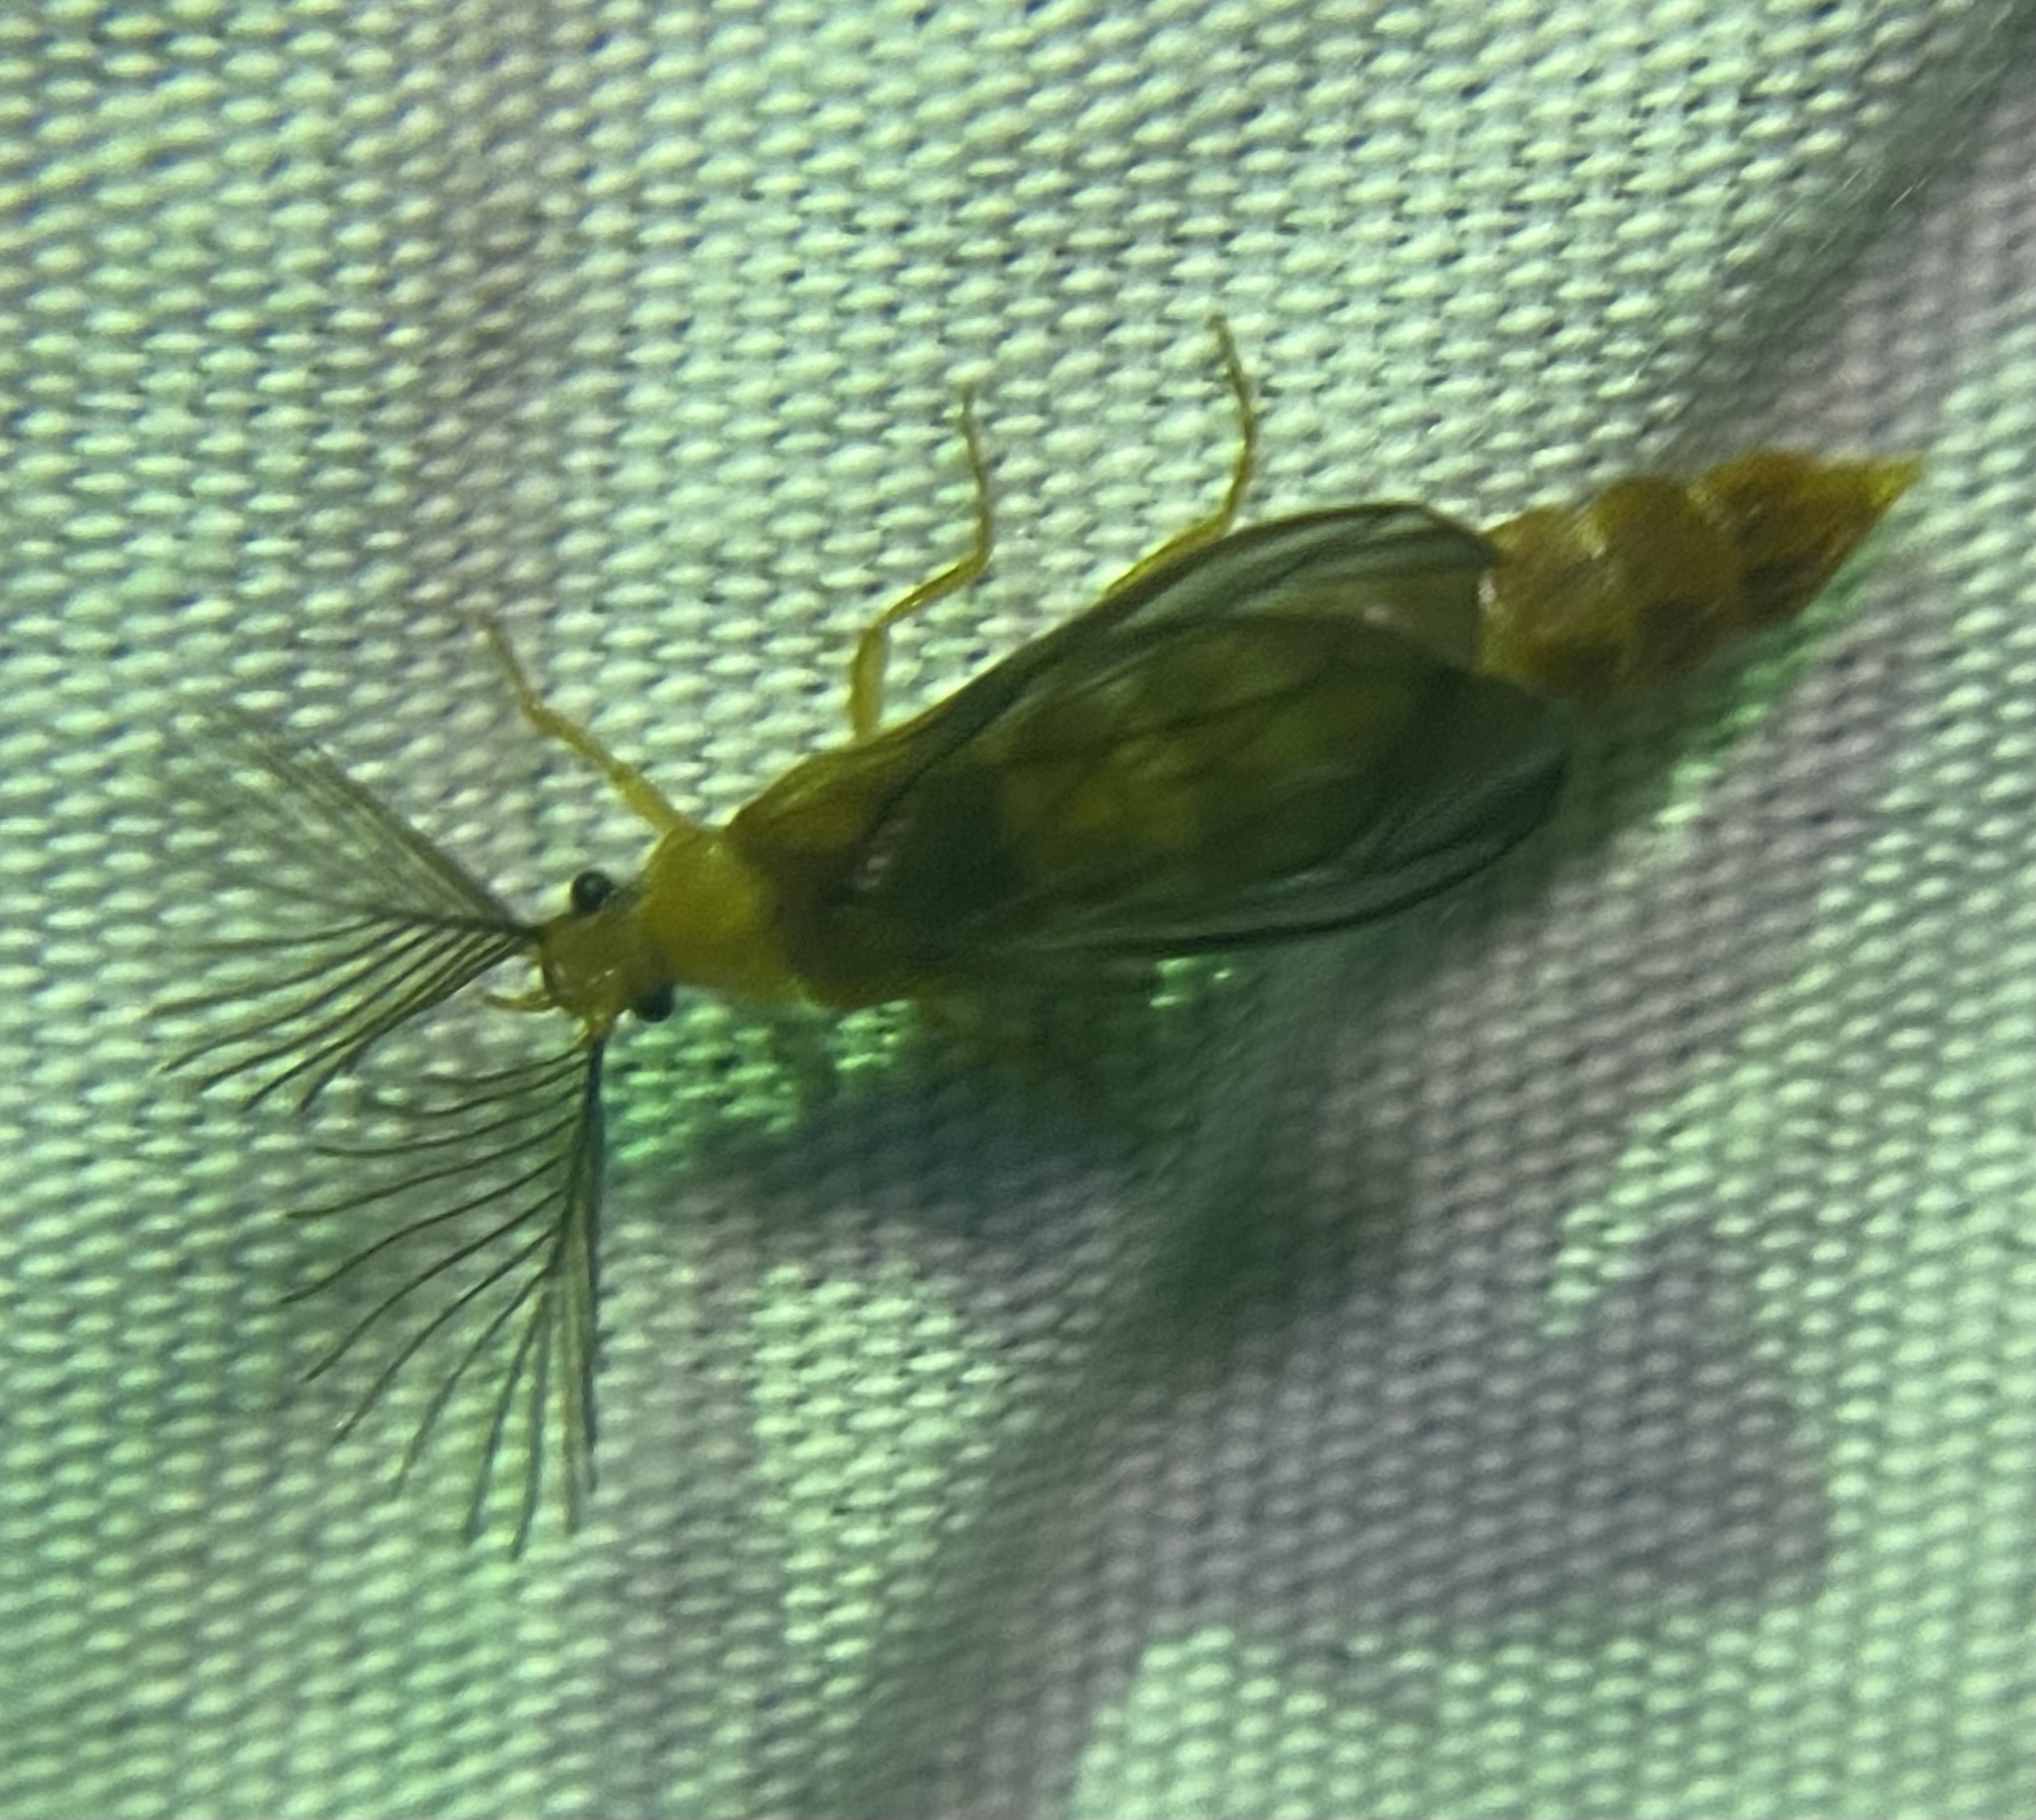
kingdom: Animalia
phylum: Arthropoda
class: Insecta
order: Coleoptera
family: Phengodidae
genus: Phengodes
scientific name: Phengodes
